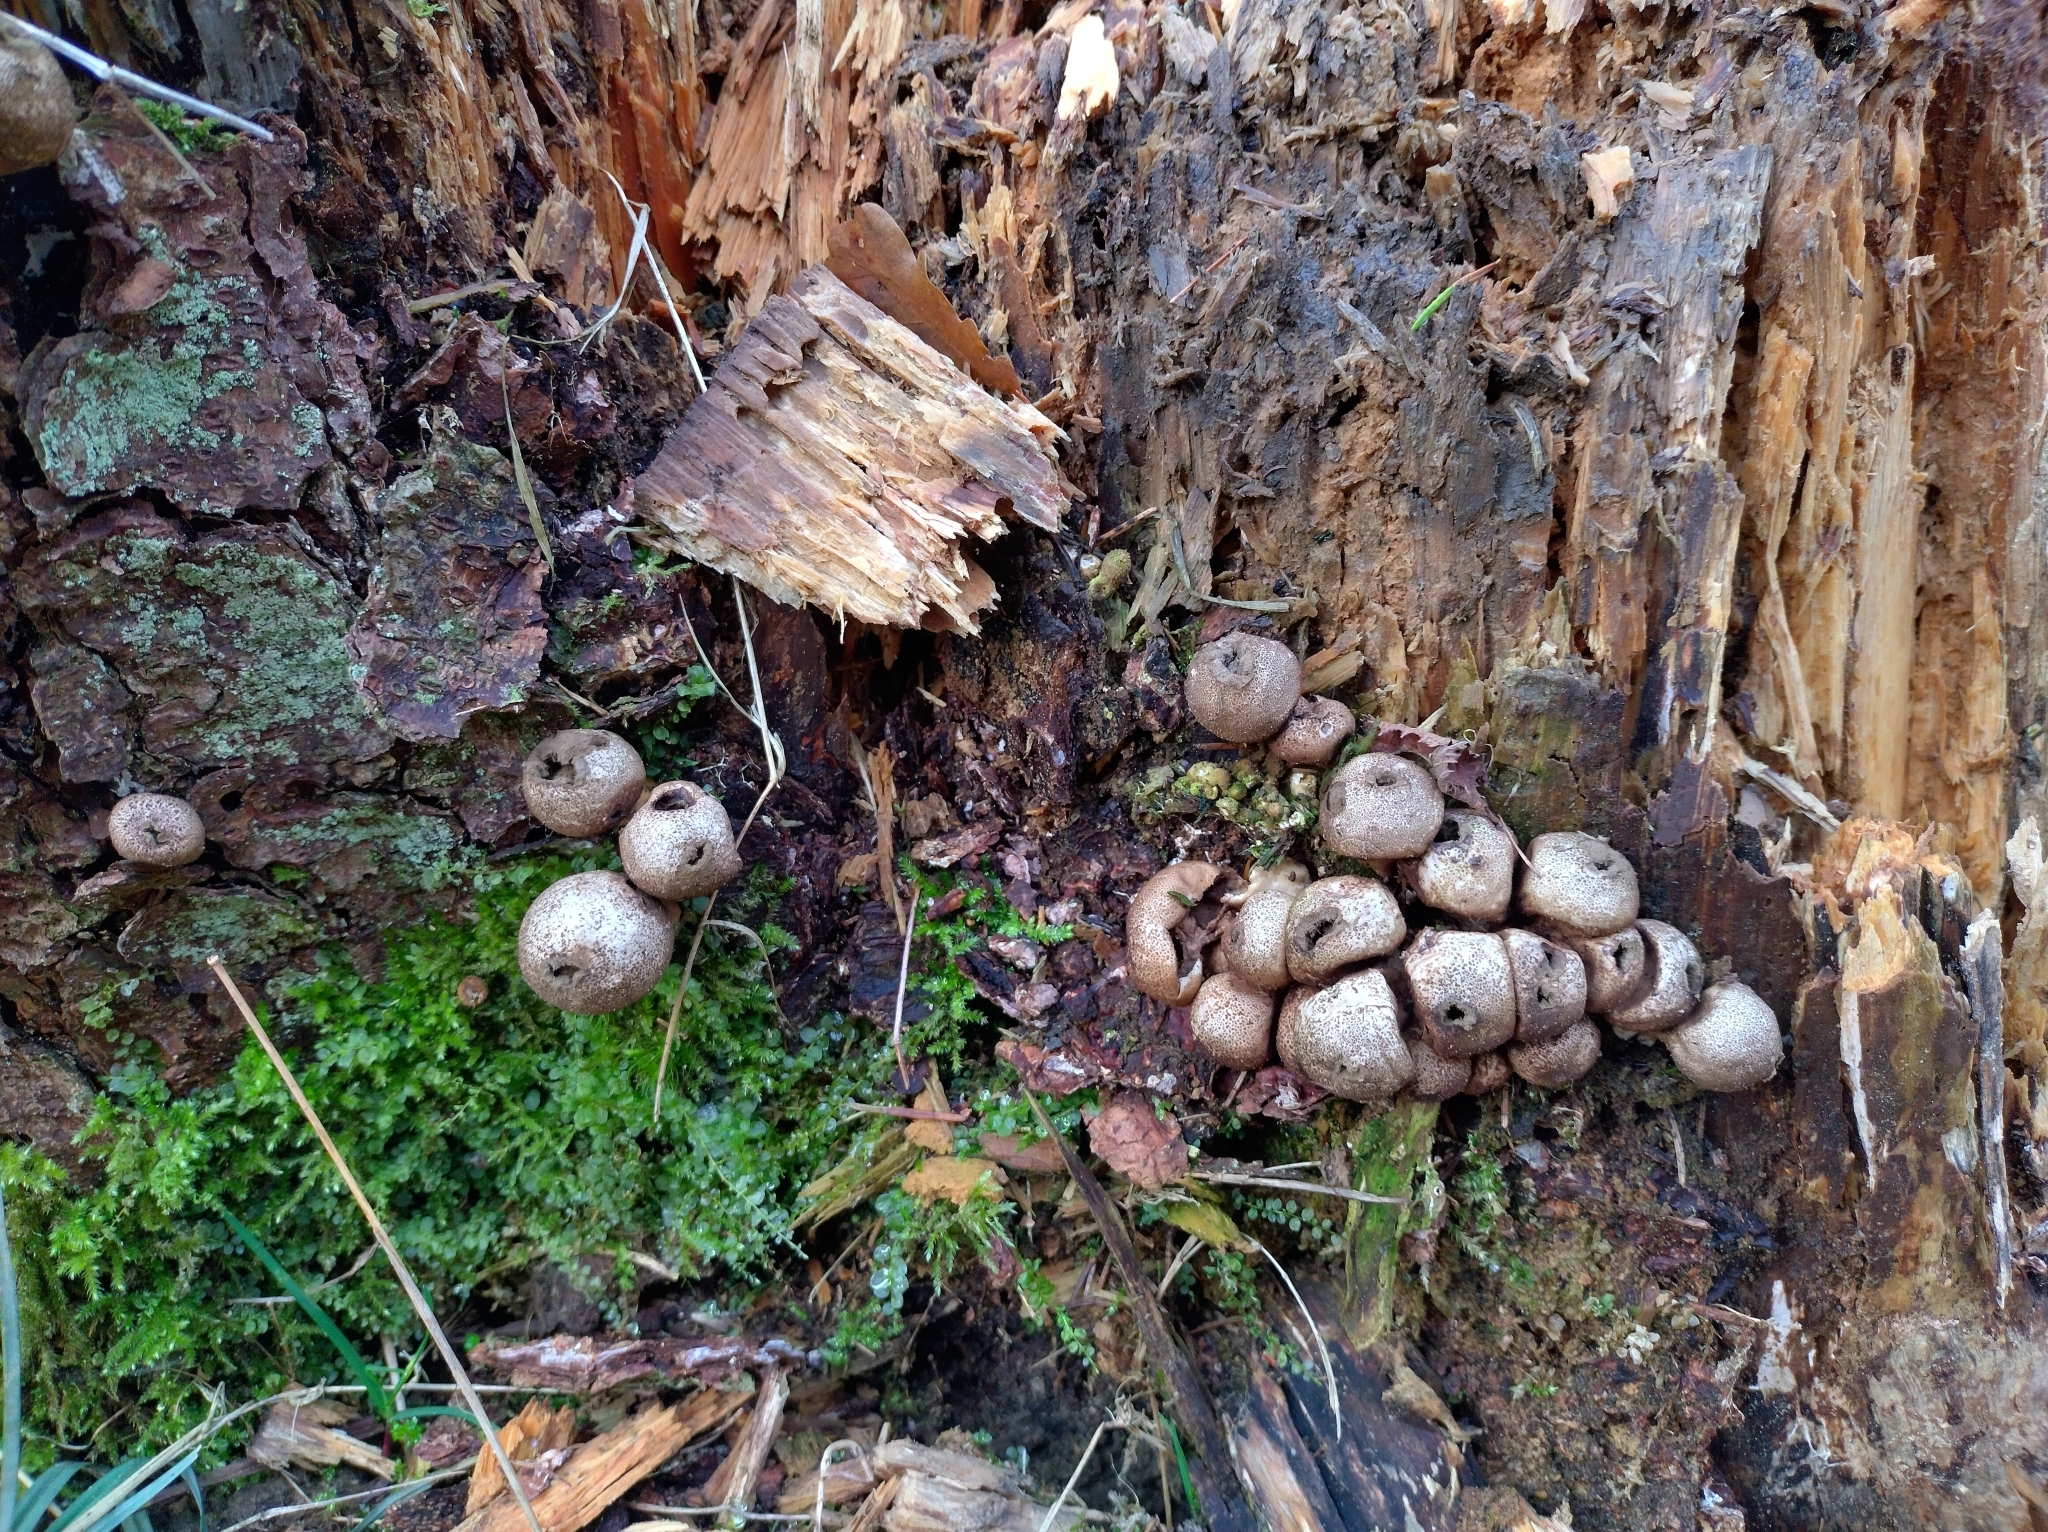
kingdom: Fungi
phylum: Basidiomycota
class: Agaricomycetes
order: Agaricales
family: Lycoperdaceae
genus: Apioperdon
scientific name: Apioperdon pyriforme
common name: Pear-shaped puffball
